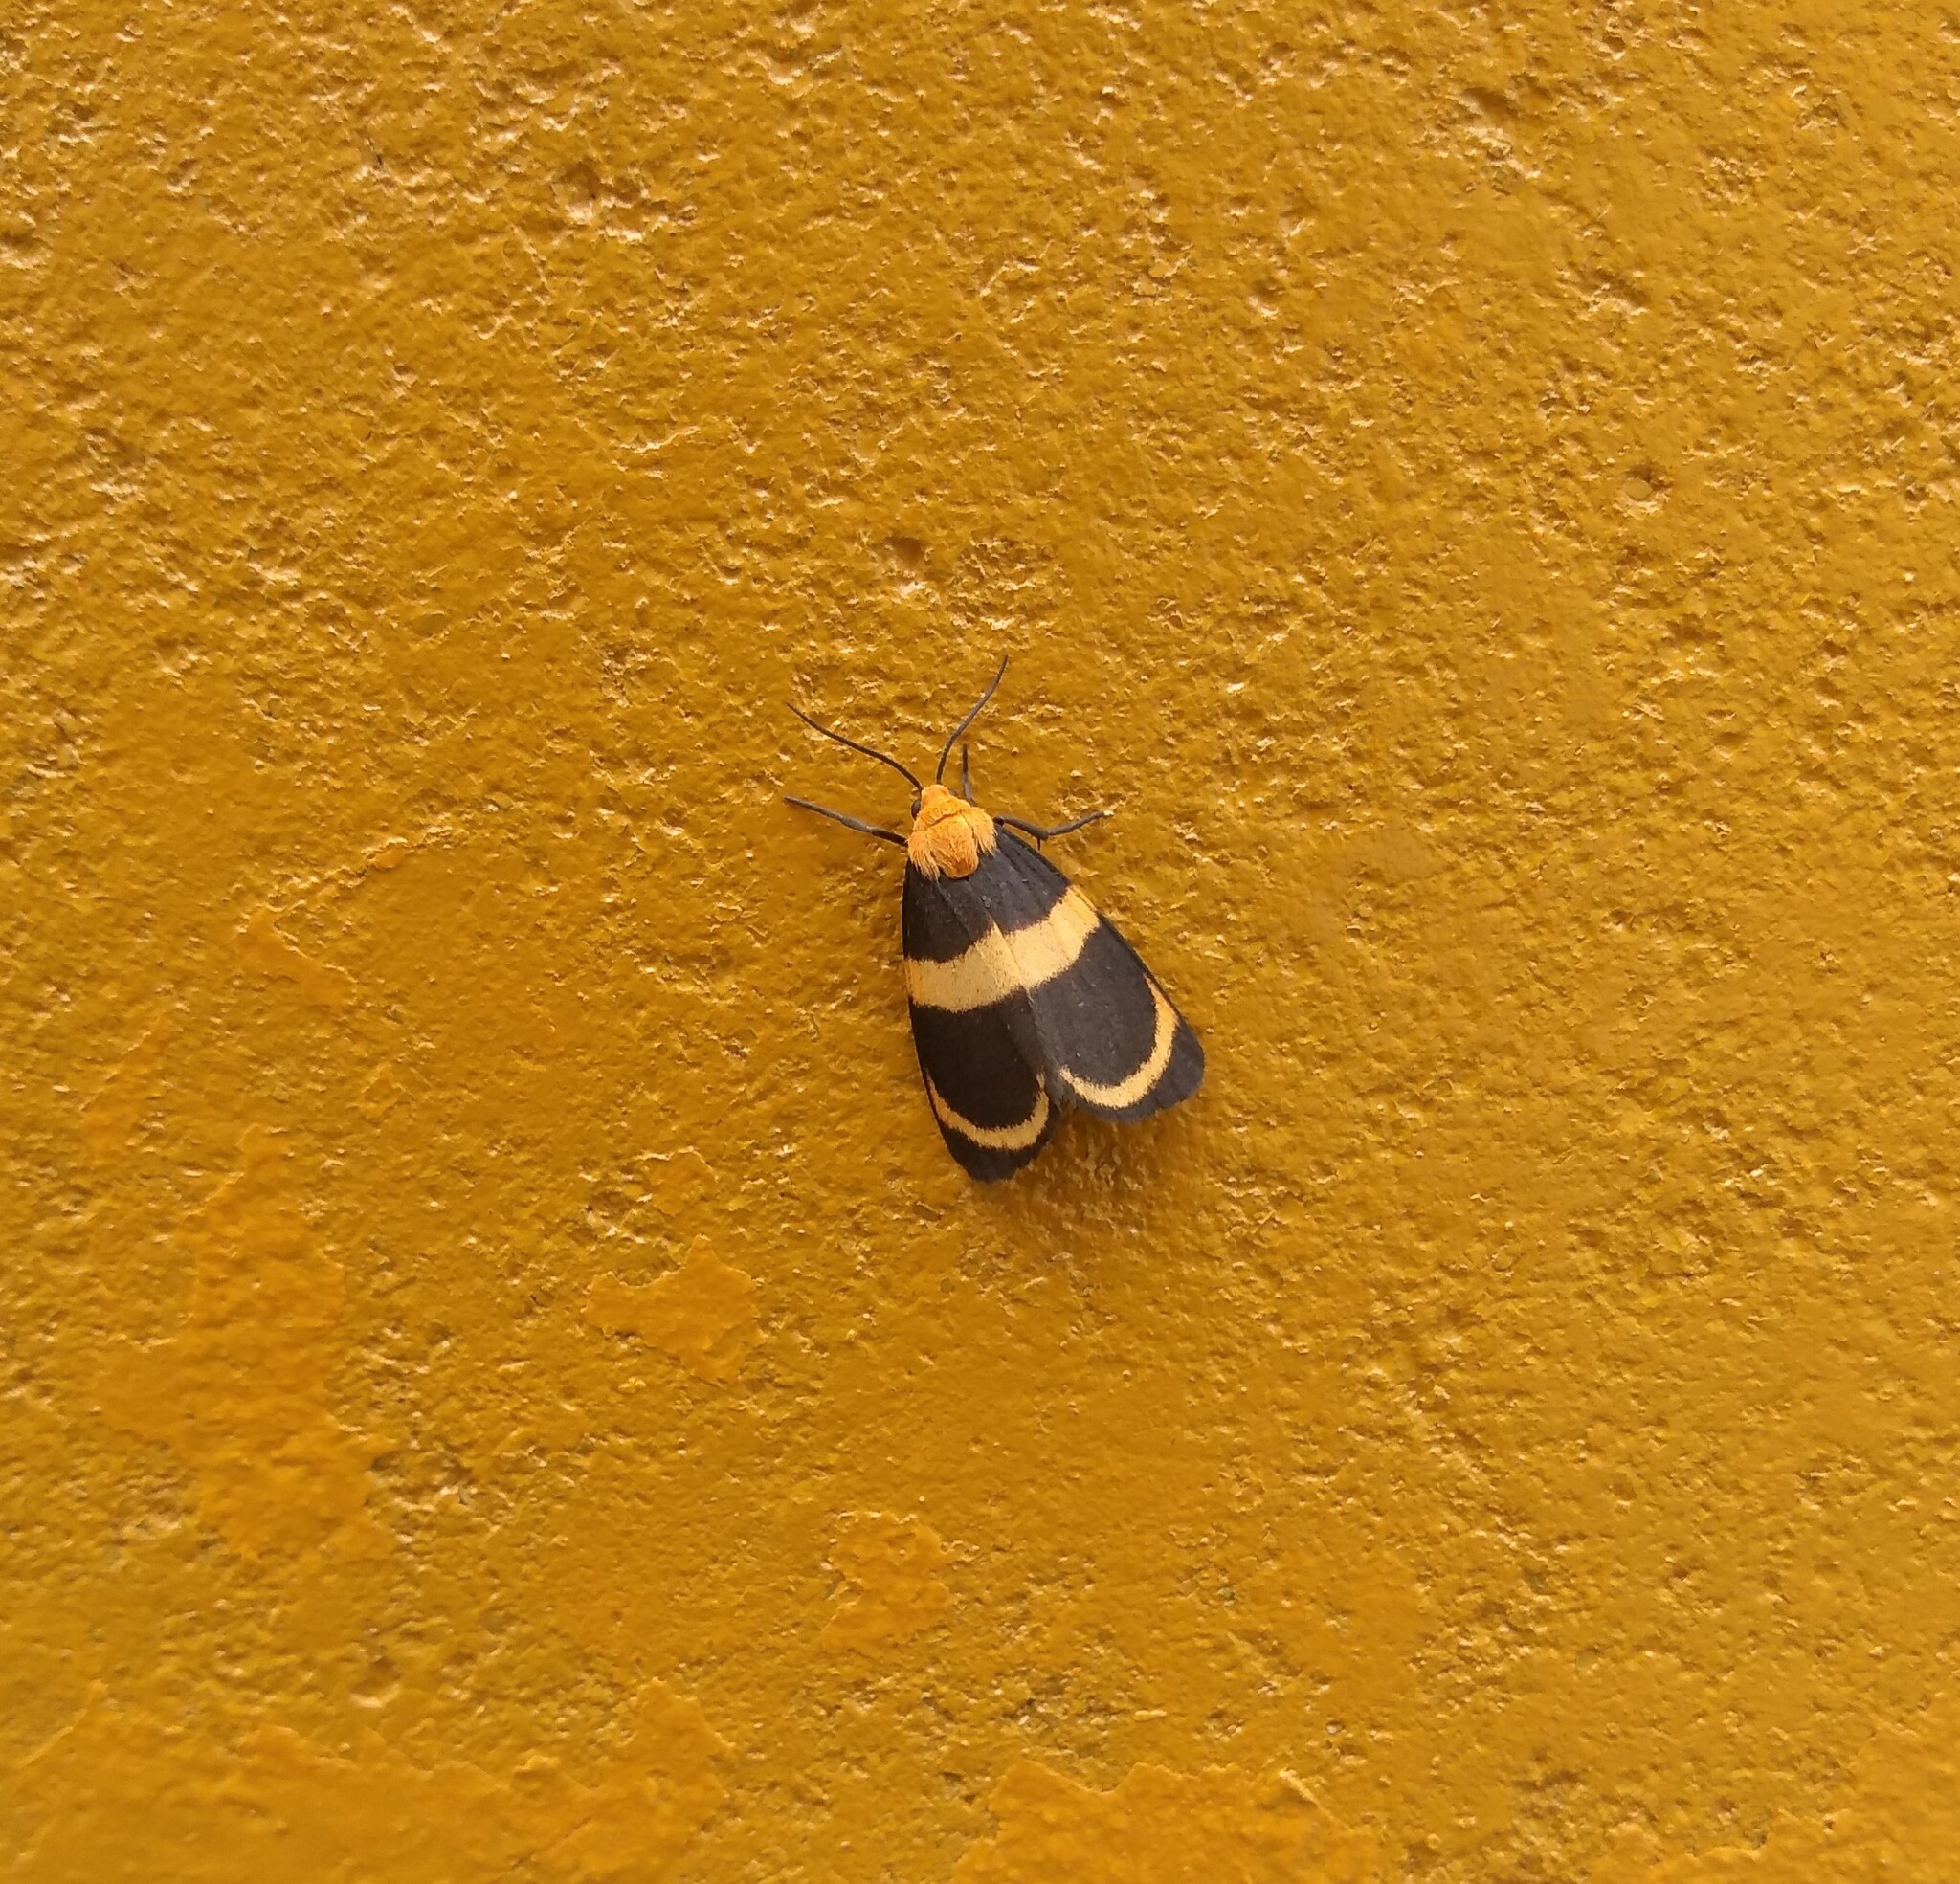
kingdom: Animalia
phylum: Arthropoda
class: Insecta
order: Lepidoptera
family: Erebidae
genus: Eudesmia
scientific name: Eudesmia menea
